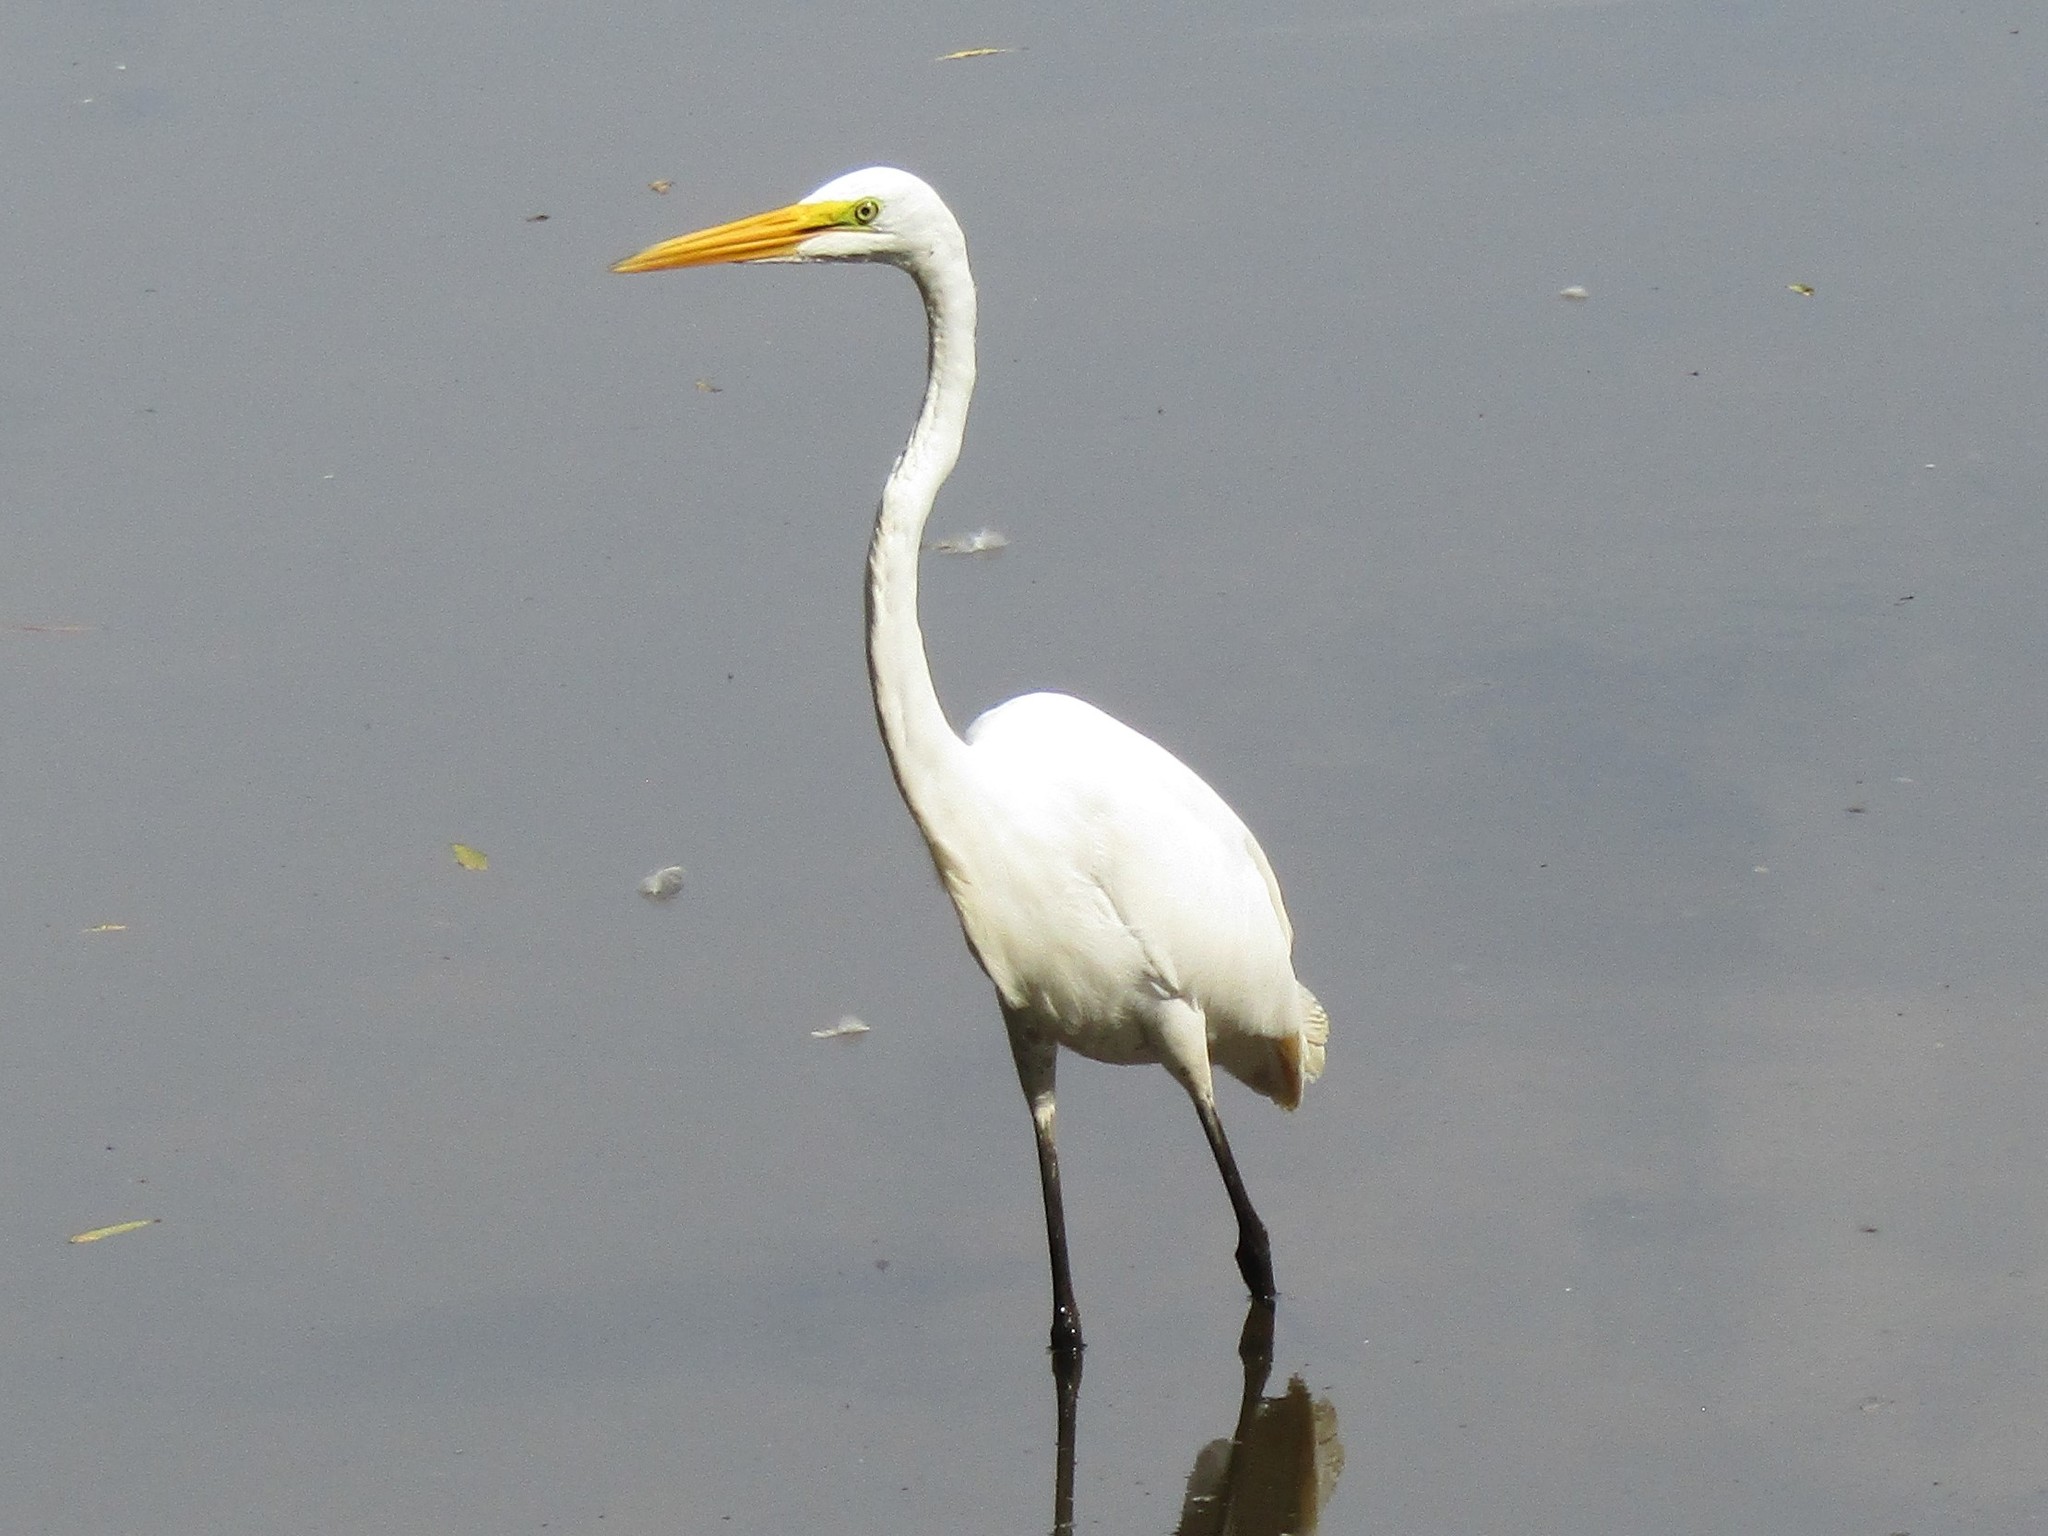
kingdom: Animalia
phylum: Chordata
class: Aves
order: Pelecaniformes
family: Ardeidae
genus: Ardea
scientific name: Ardea alba
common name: Great egret
